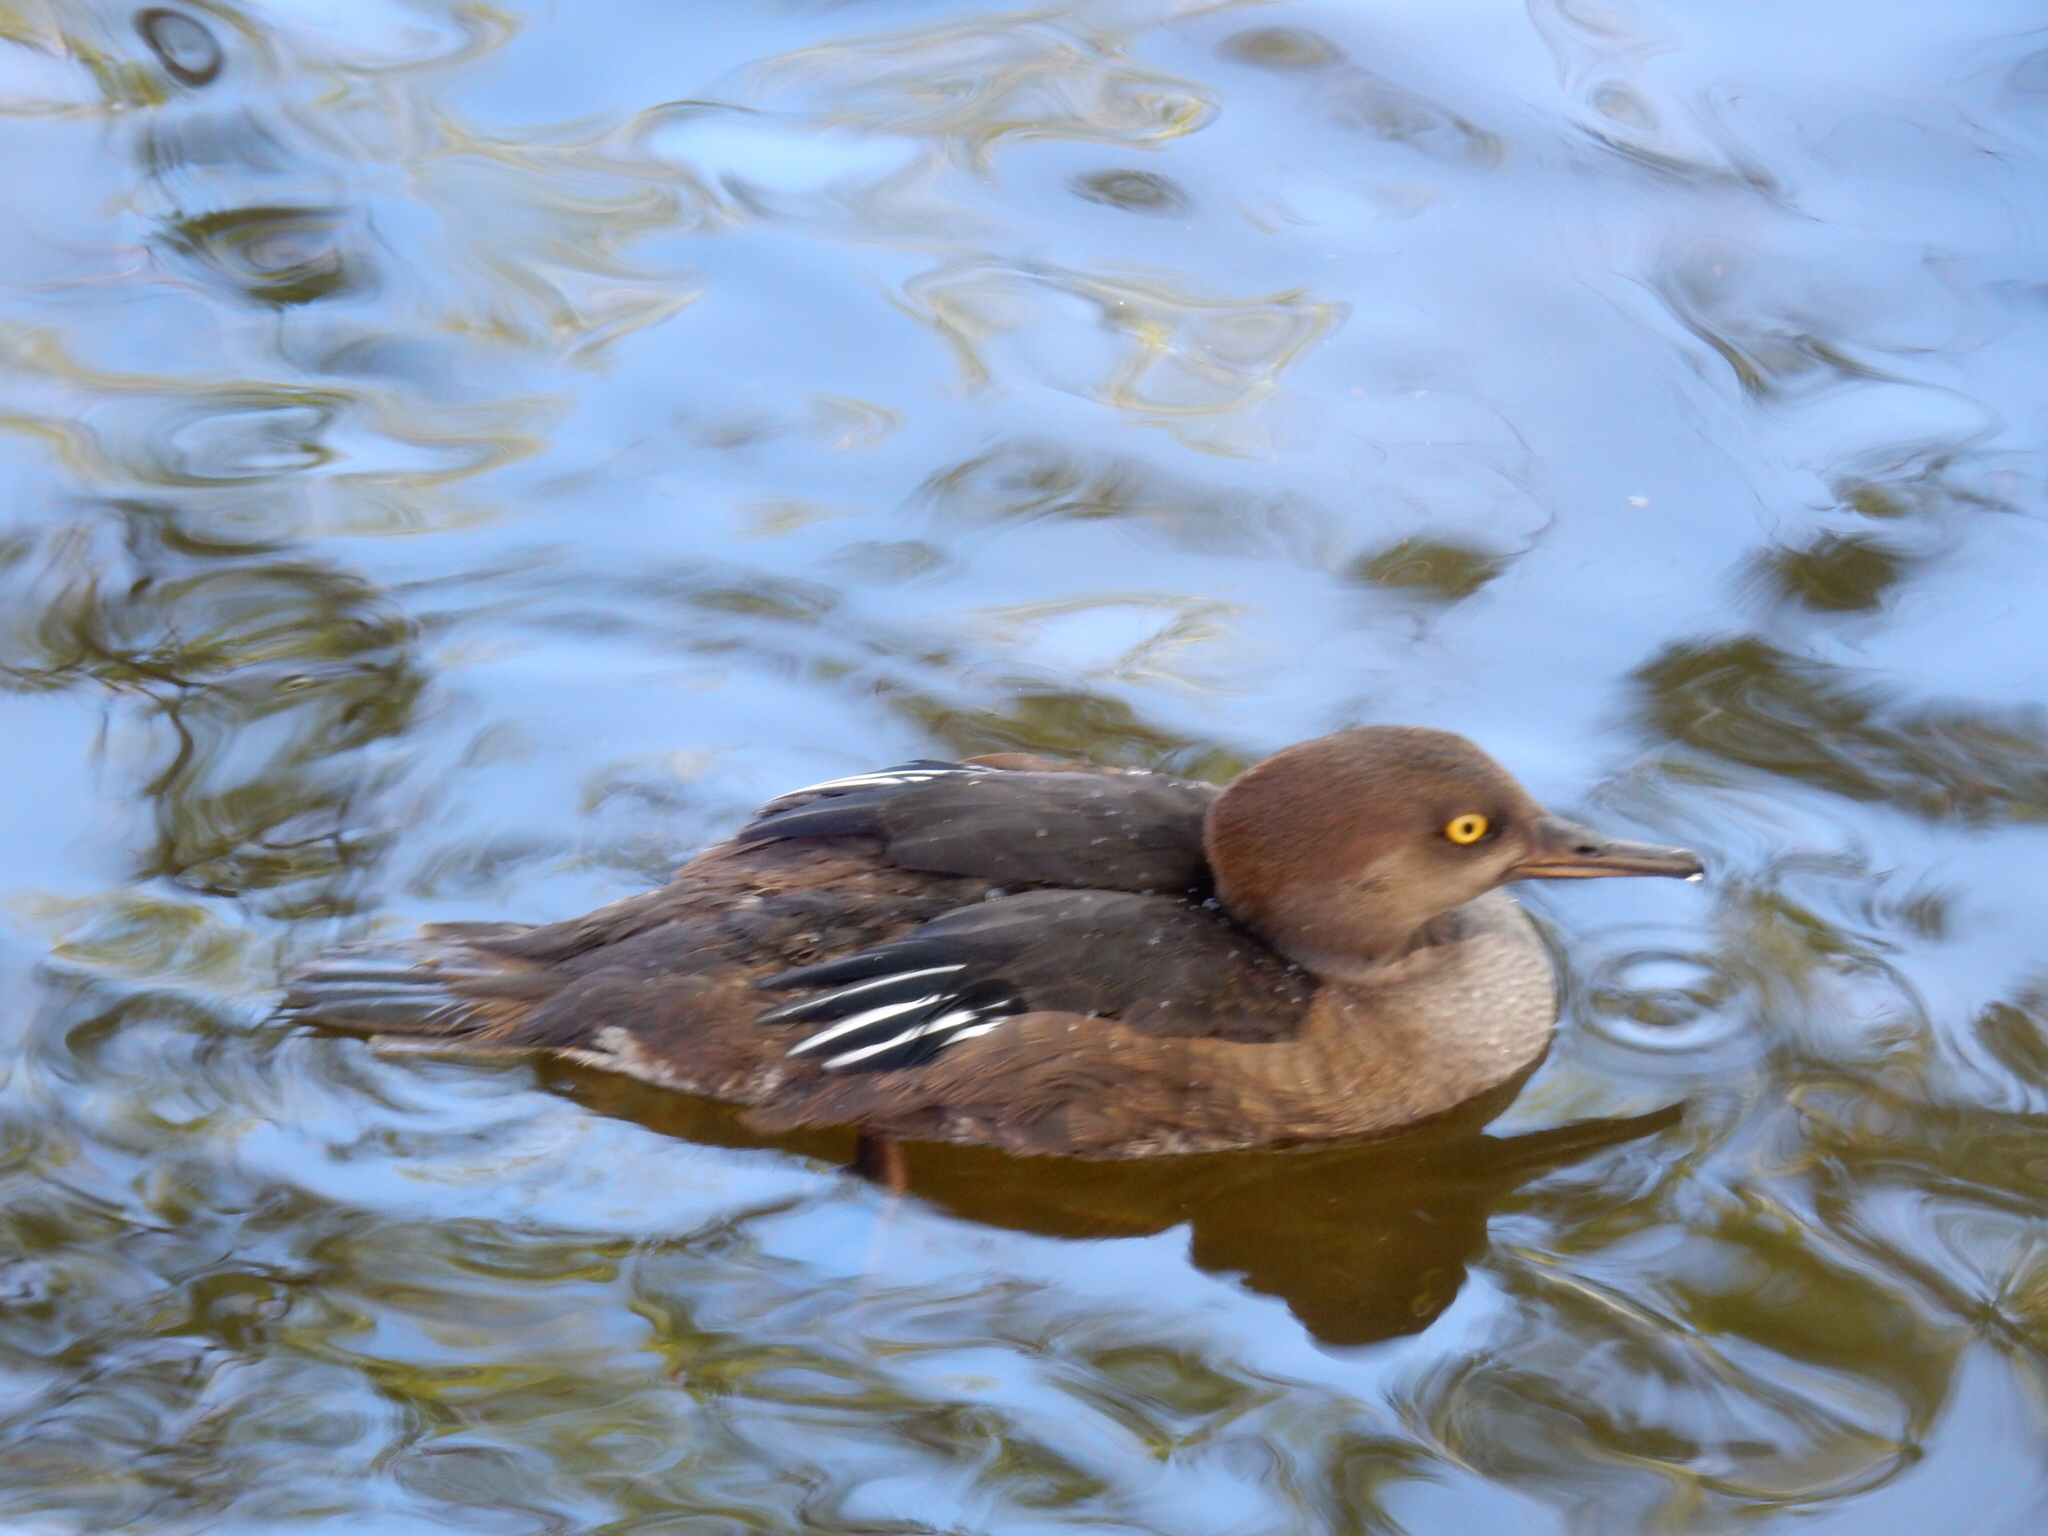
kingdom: Animalia
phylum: Chordata
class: Aves
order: Anseriformes
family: Anatidae
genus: Lophodytes
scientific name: Lophodytes cucullatus
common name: Hooded merganser
